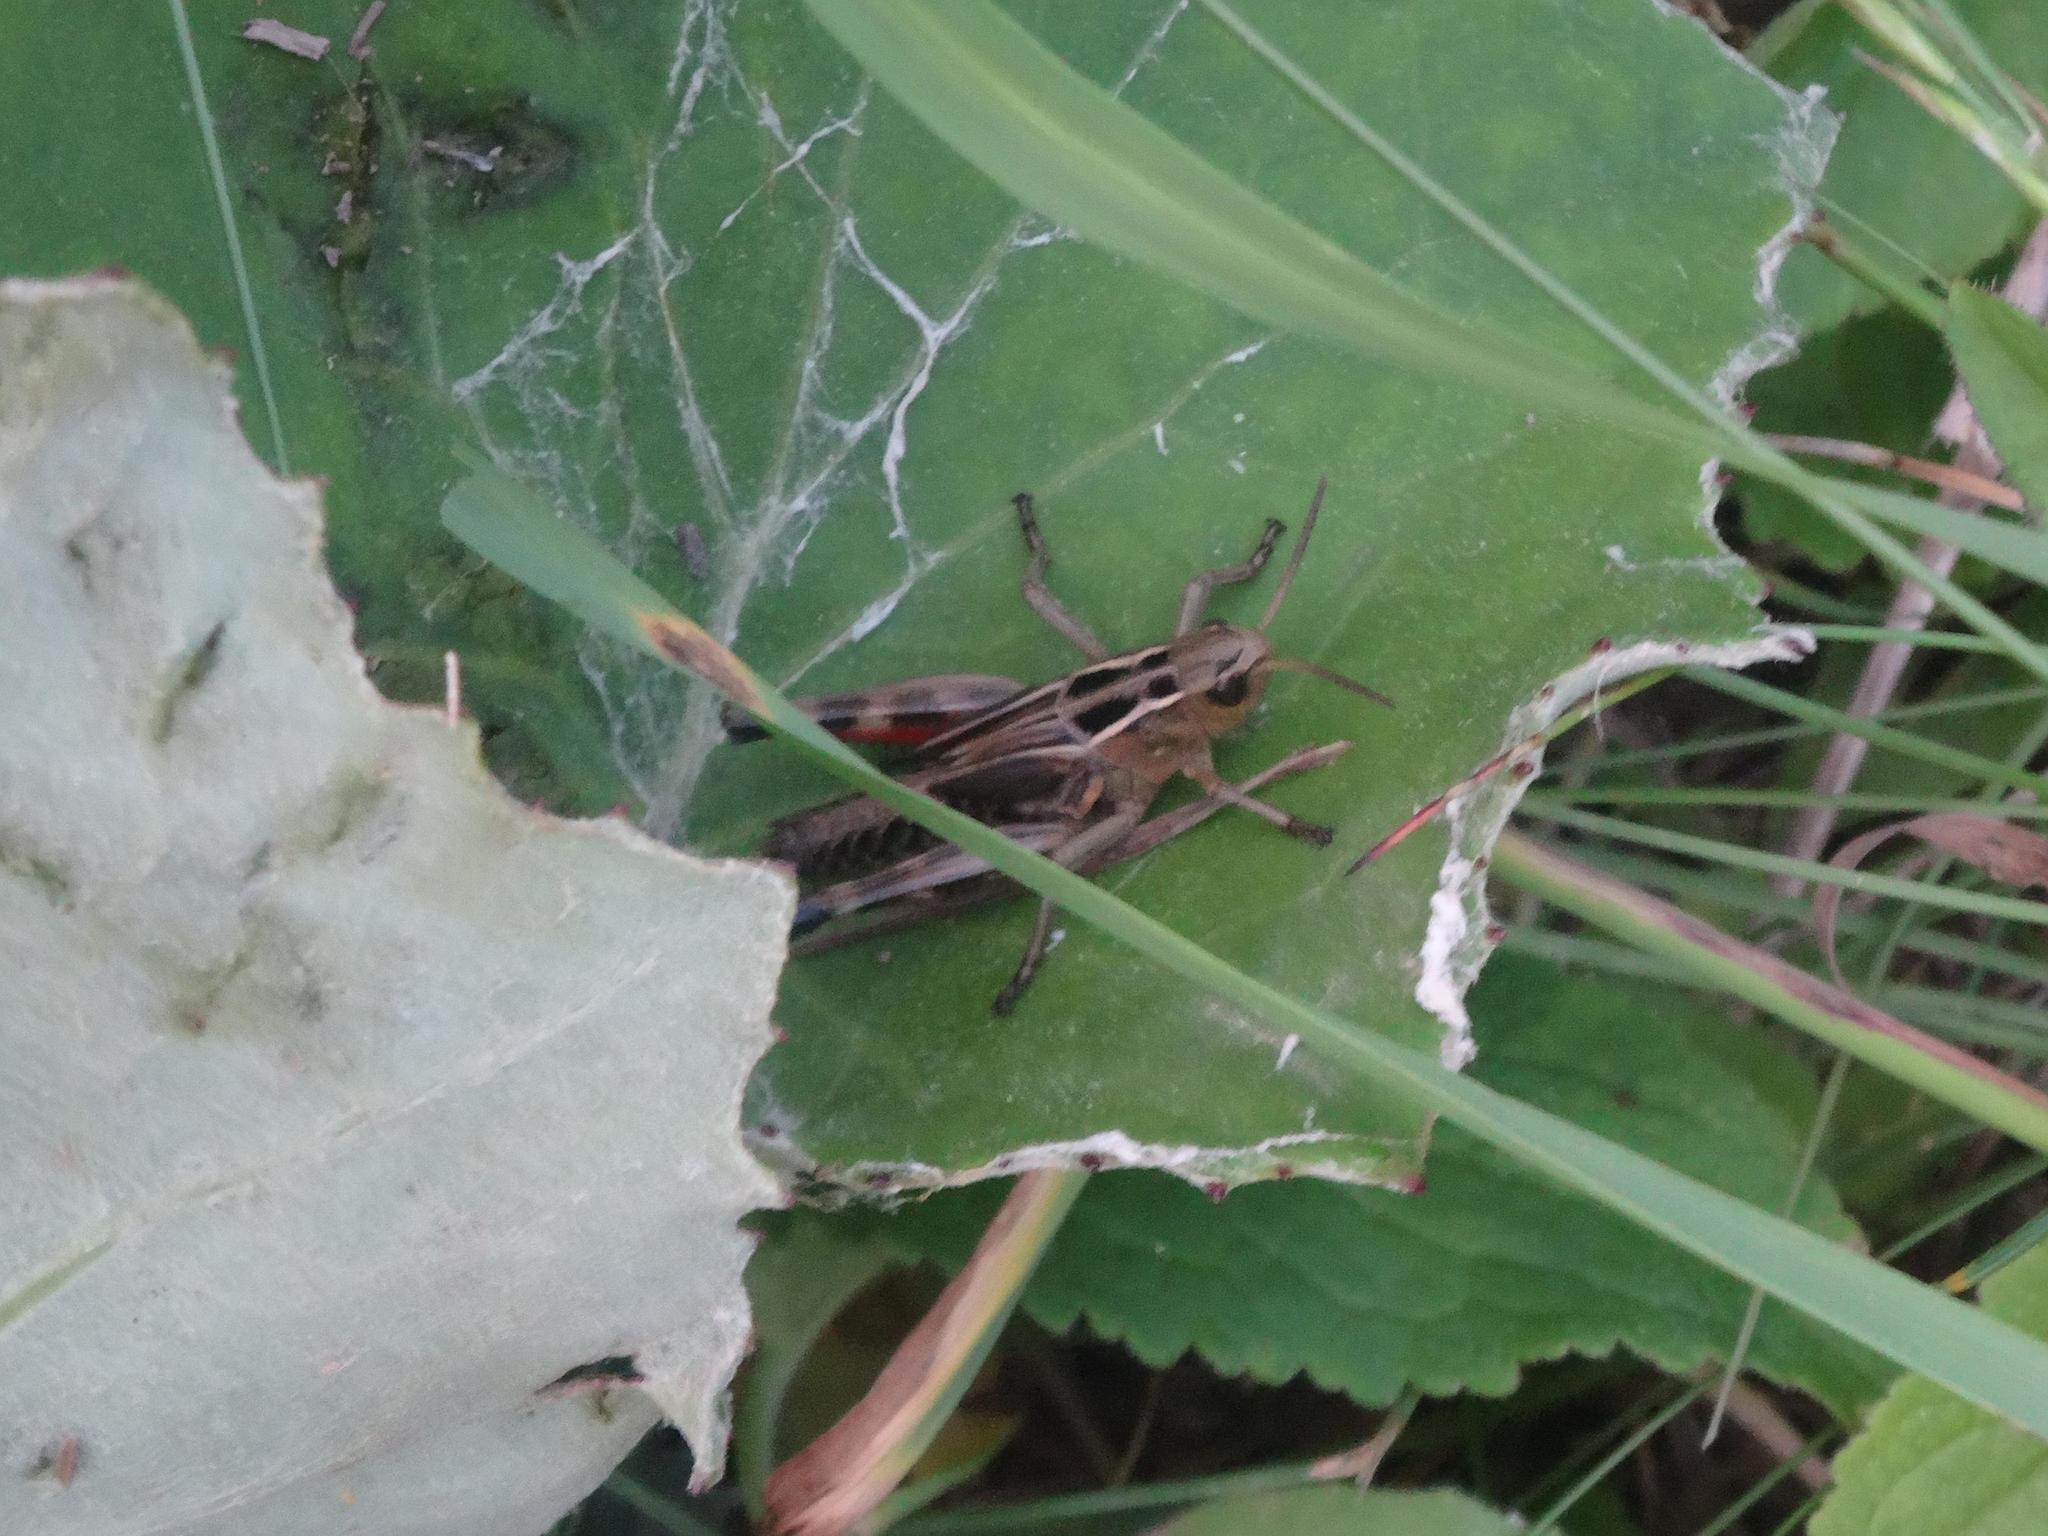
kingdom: Animalia
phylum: Arthropoda
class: Insecta
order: Orthoptera
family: Acrididae
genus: Arcyptera
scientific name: Arcyptera fusca
